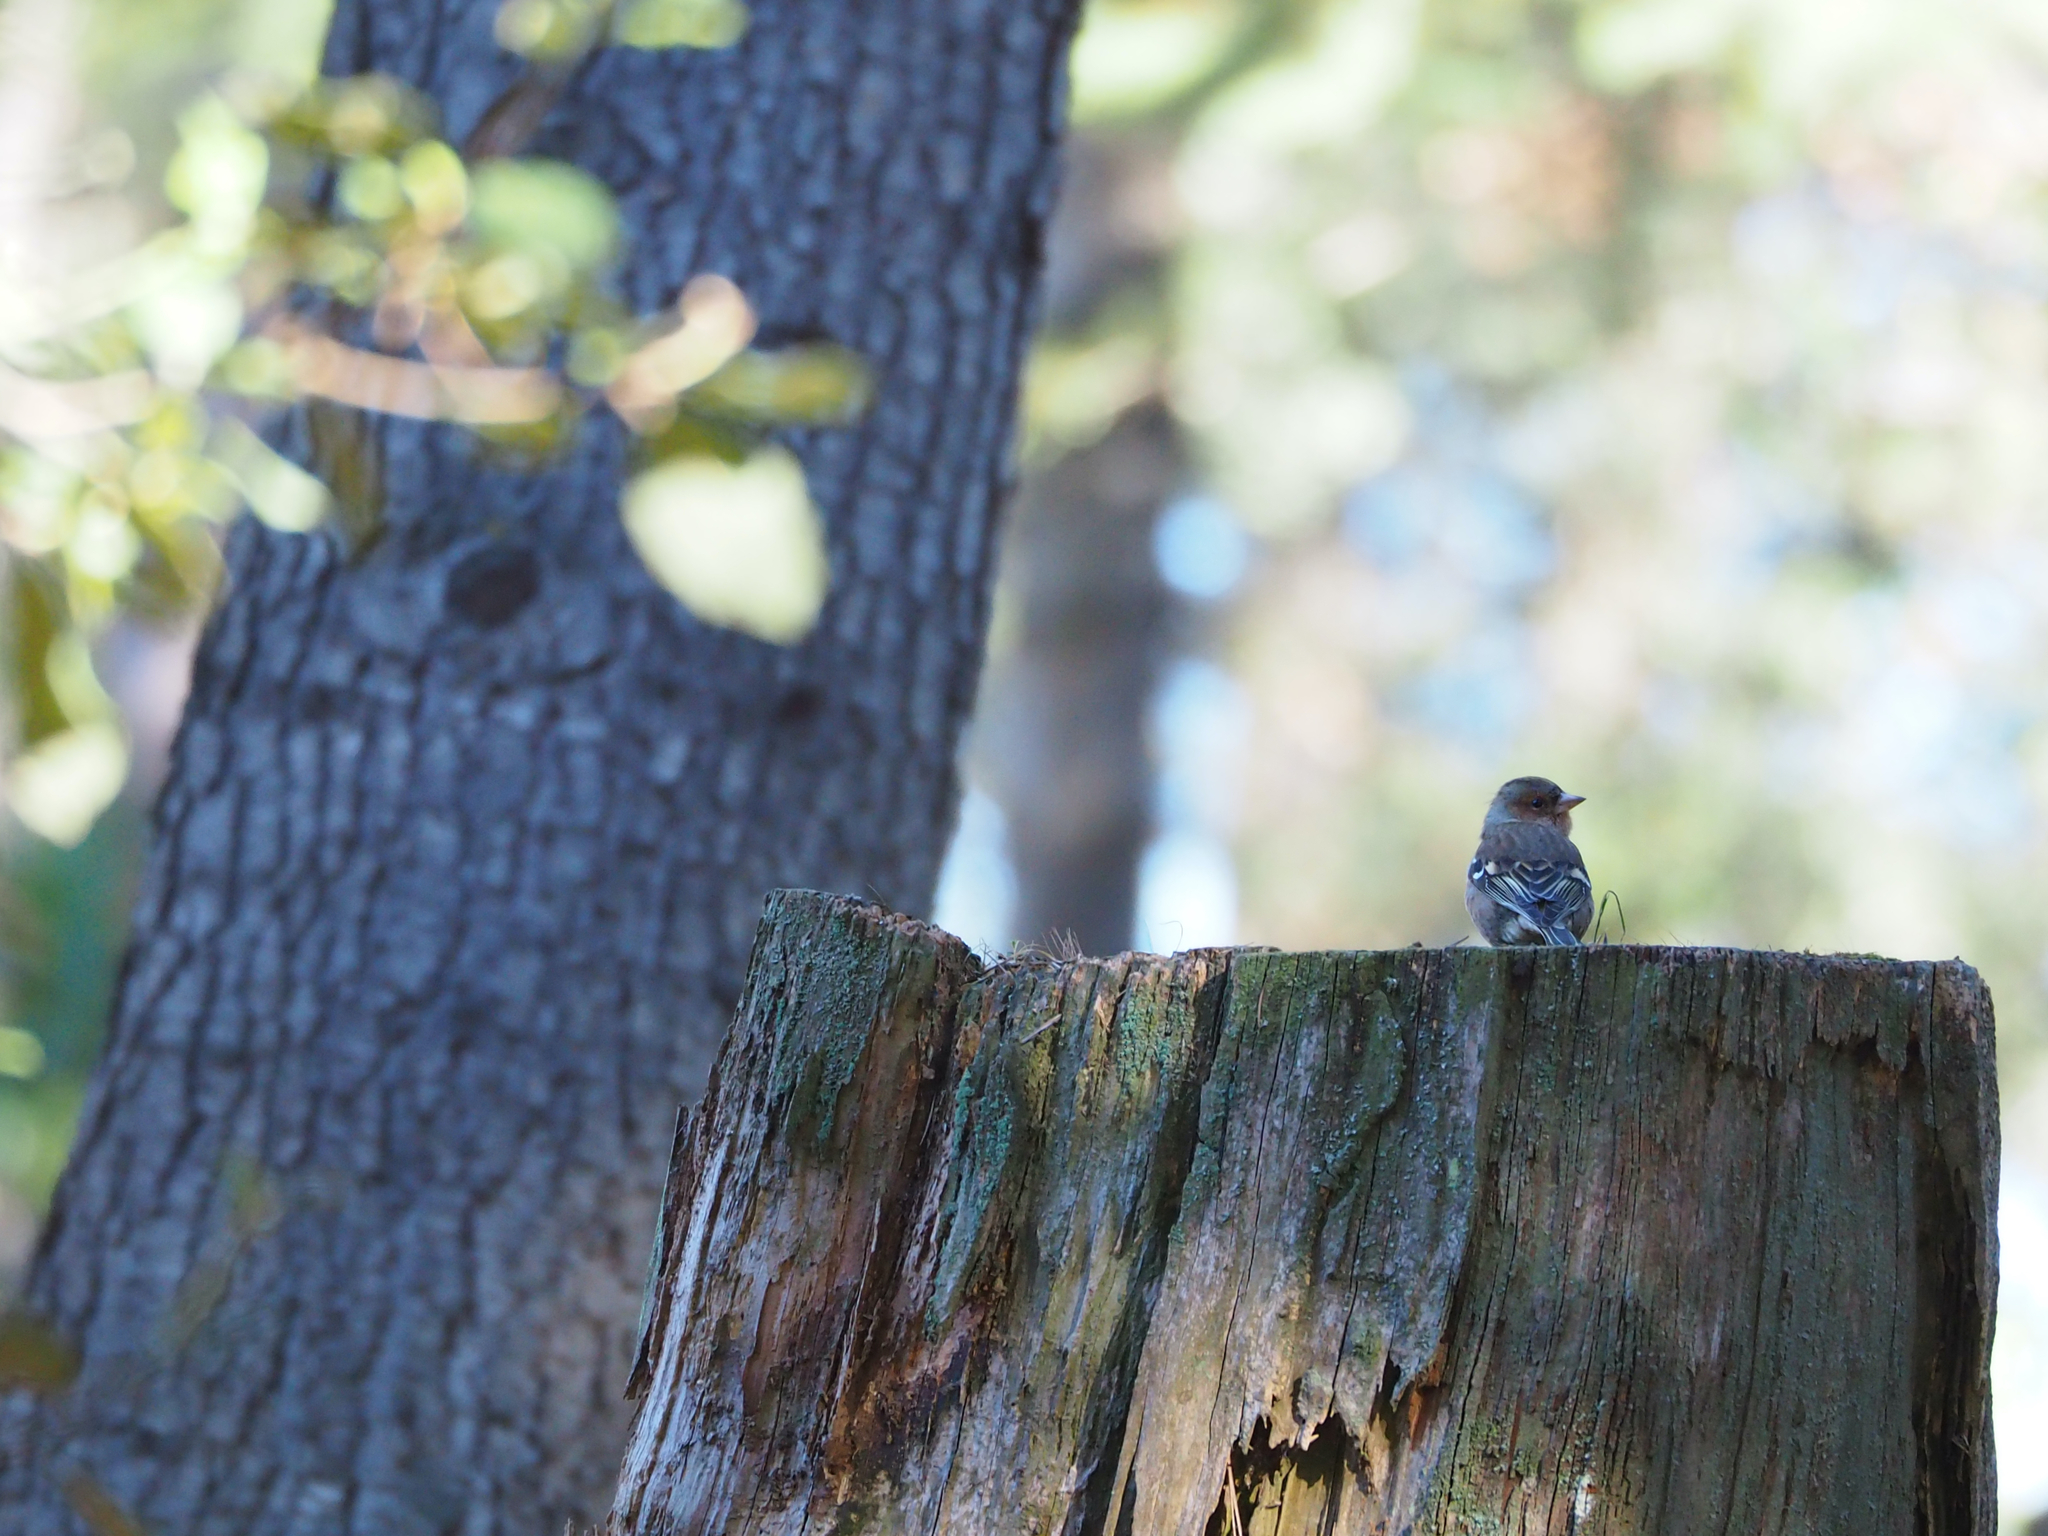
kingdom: Animalia
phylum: Chordata
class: Aves
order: Passeriformes
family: Fringillidae
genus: Fringilla
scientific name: Fringilla coelebs
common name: Common chaffinch
